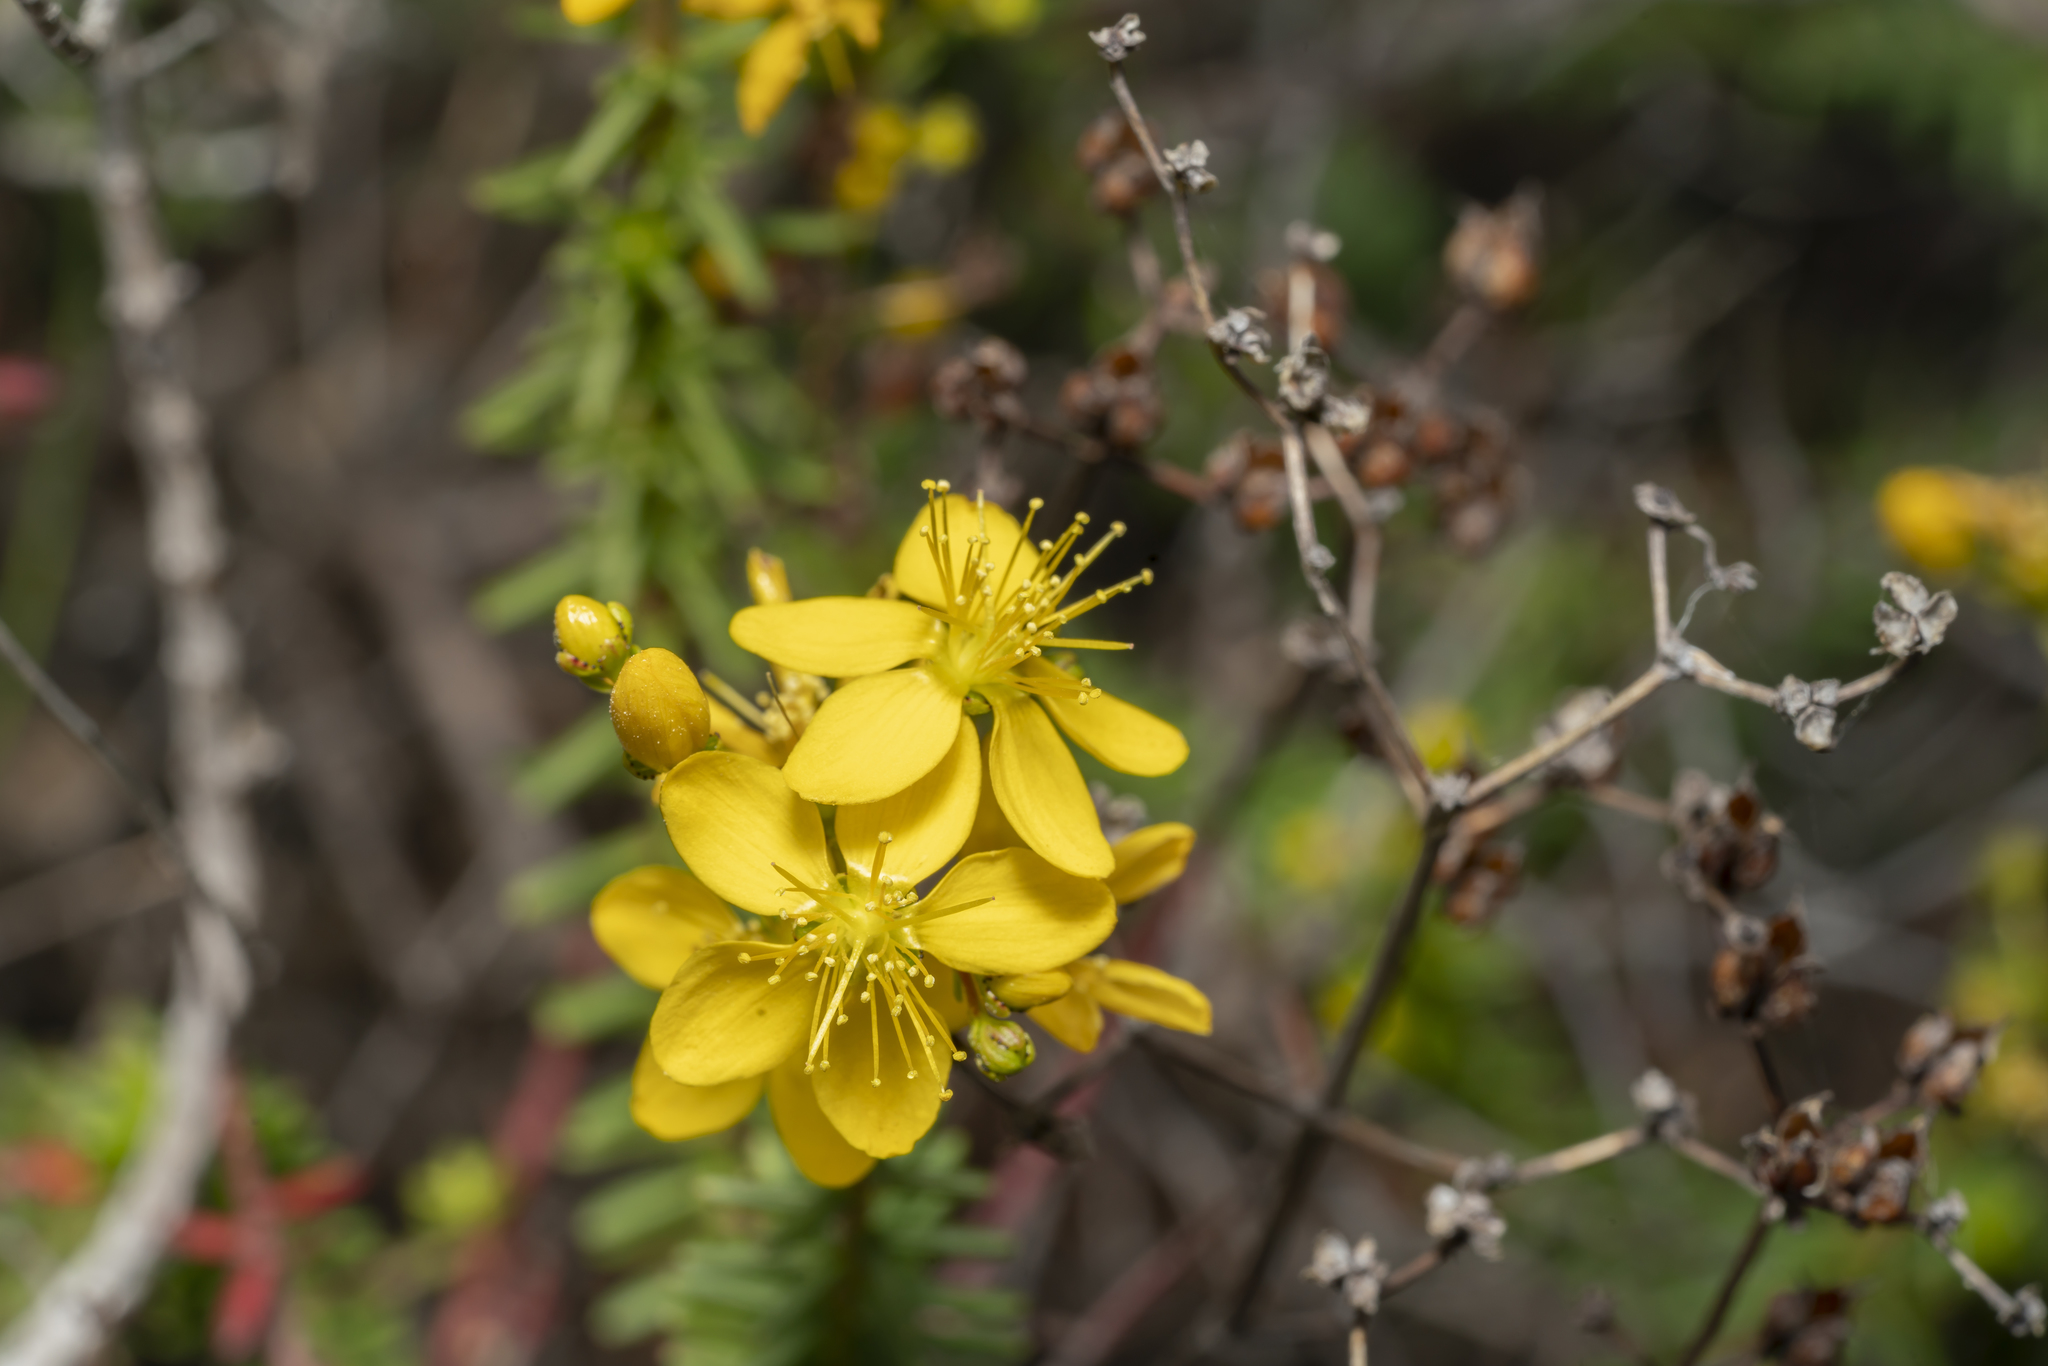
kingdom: Plantae
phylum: Tracheophyta
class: Magnoliopsida
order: Malpighiales
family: Hypericaceae
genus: Hypericum
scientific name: Hypericum empetrifolium
